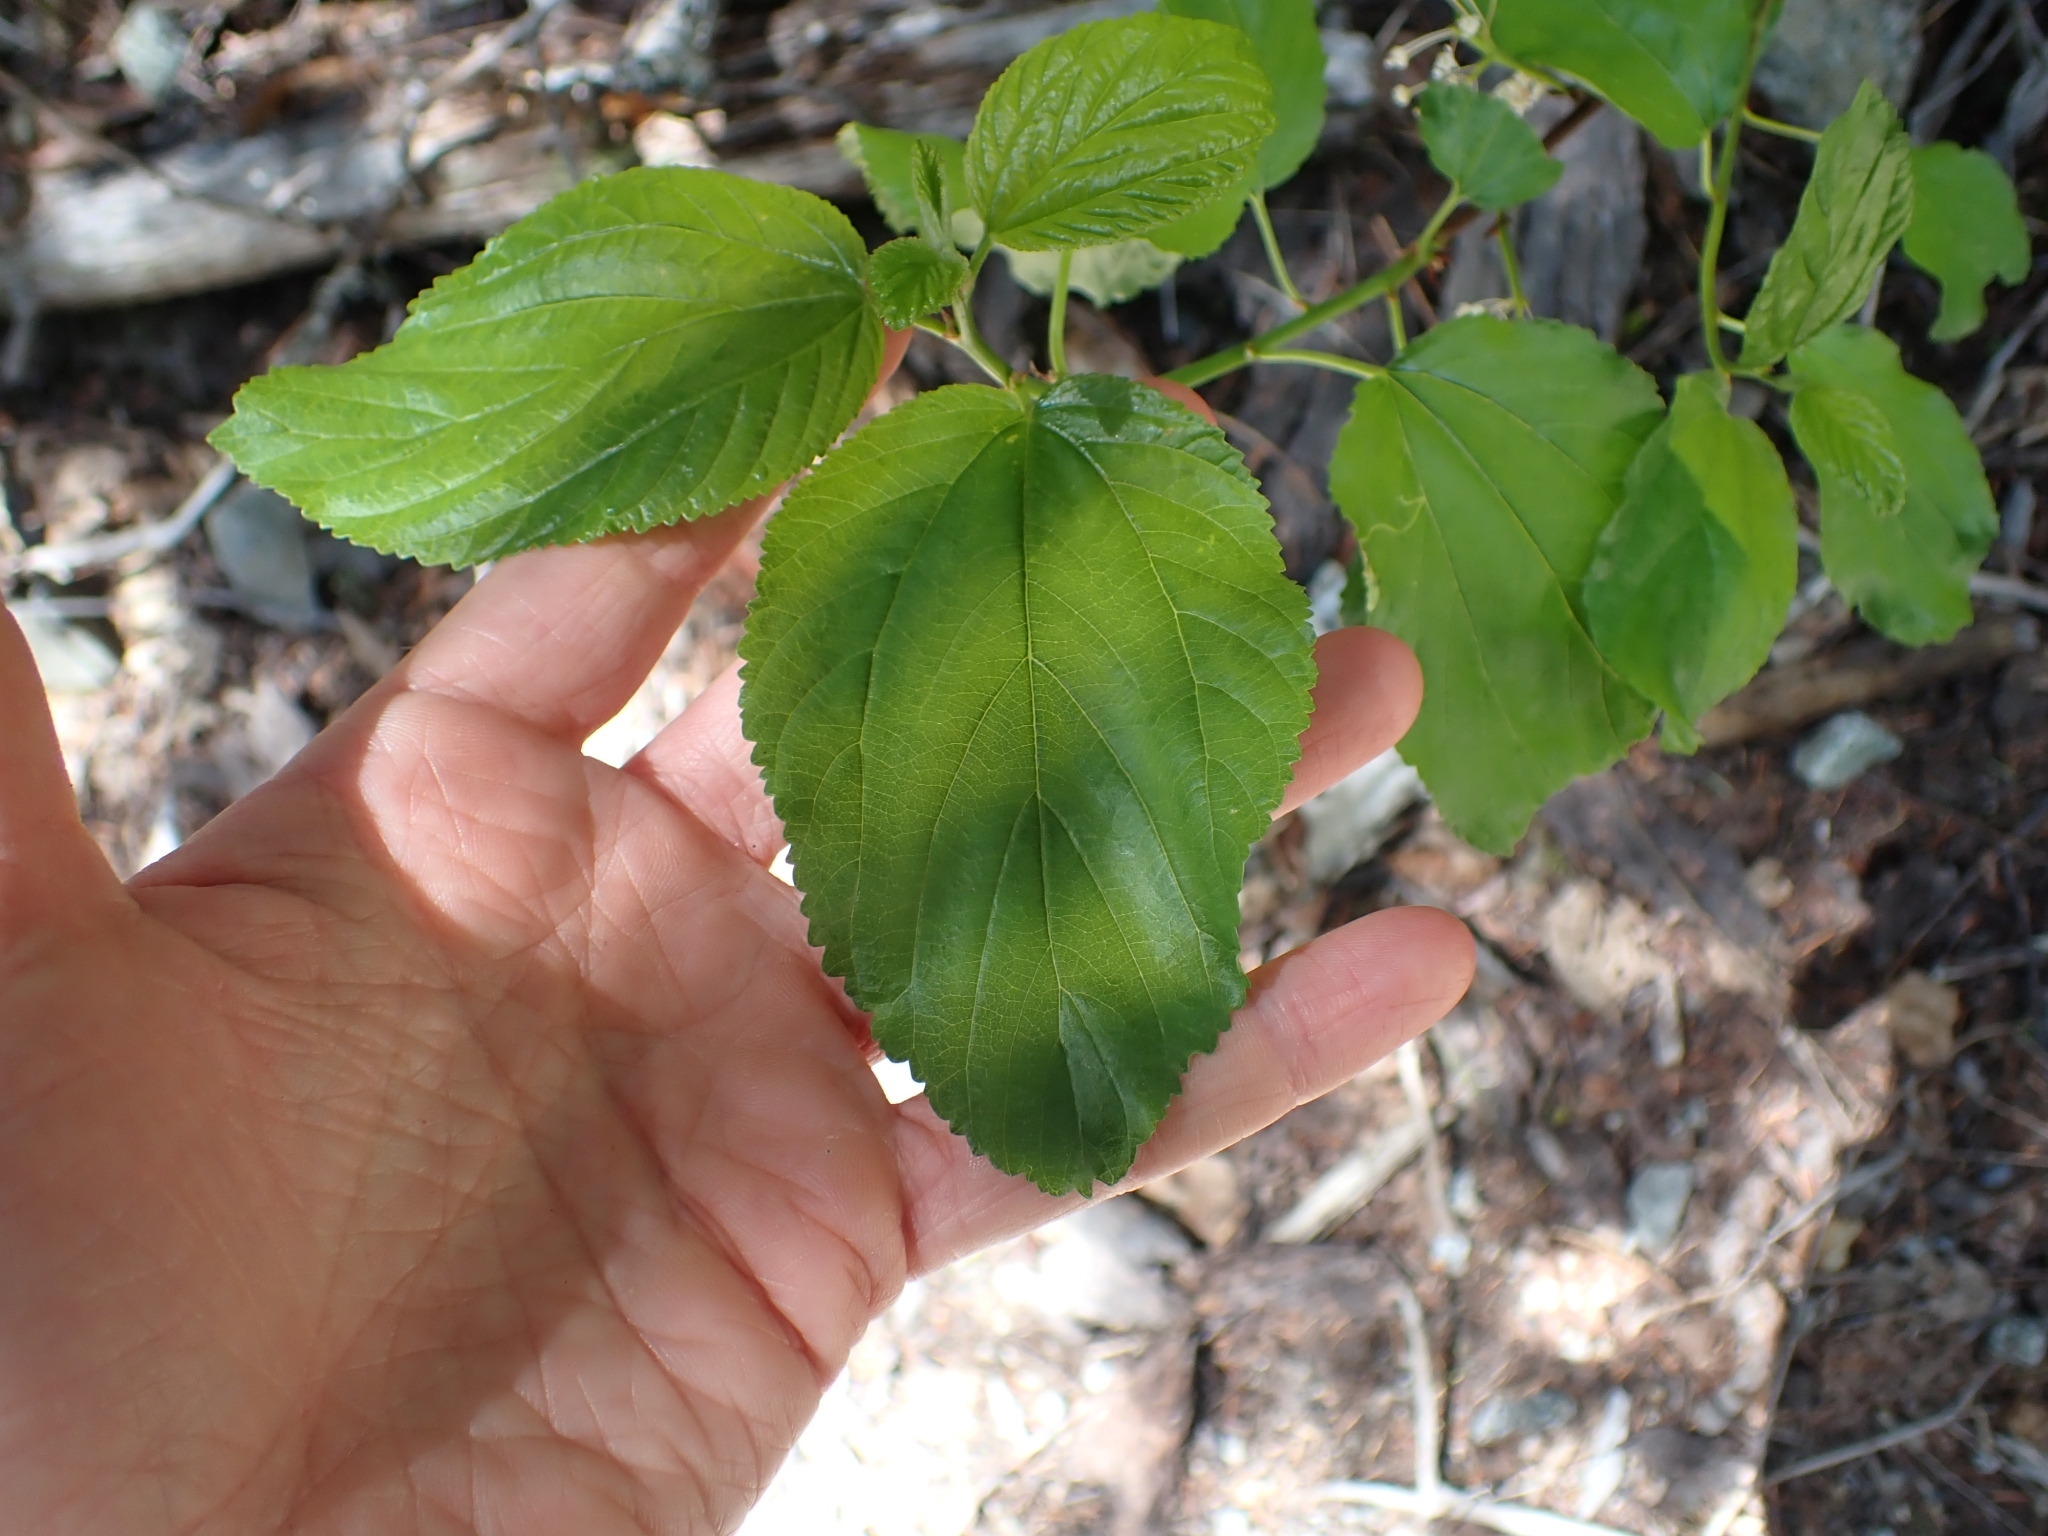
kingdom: Plantae
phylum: Tracheophyta
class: Magnoliopsida
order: Rosales
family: Rhamnaceae
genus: Ceanothus
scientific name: Ceanothus sanguineus
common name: Teatree
